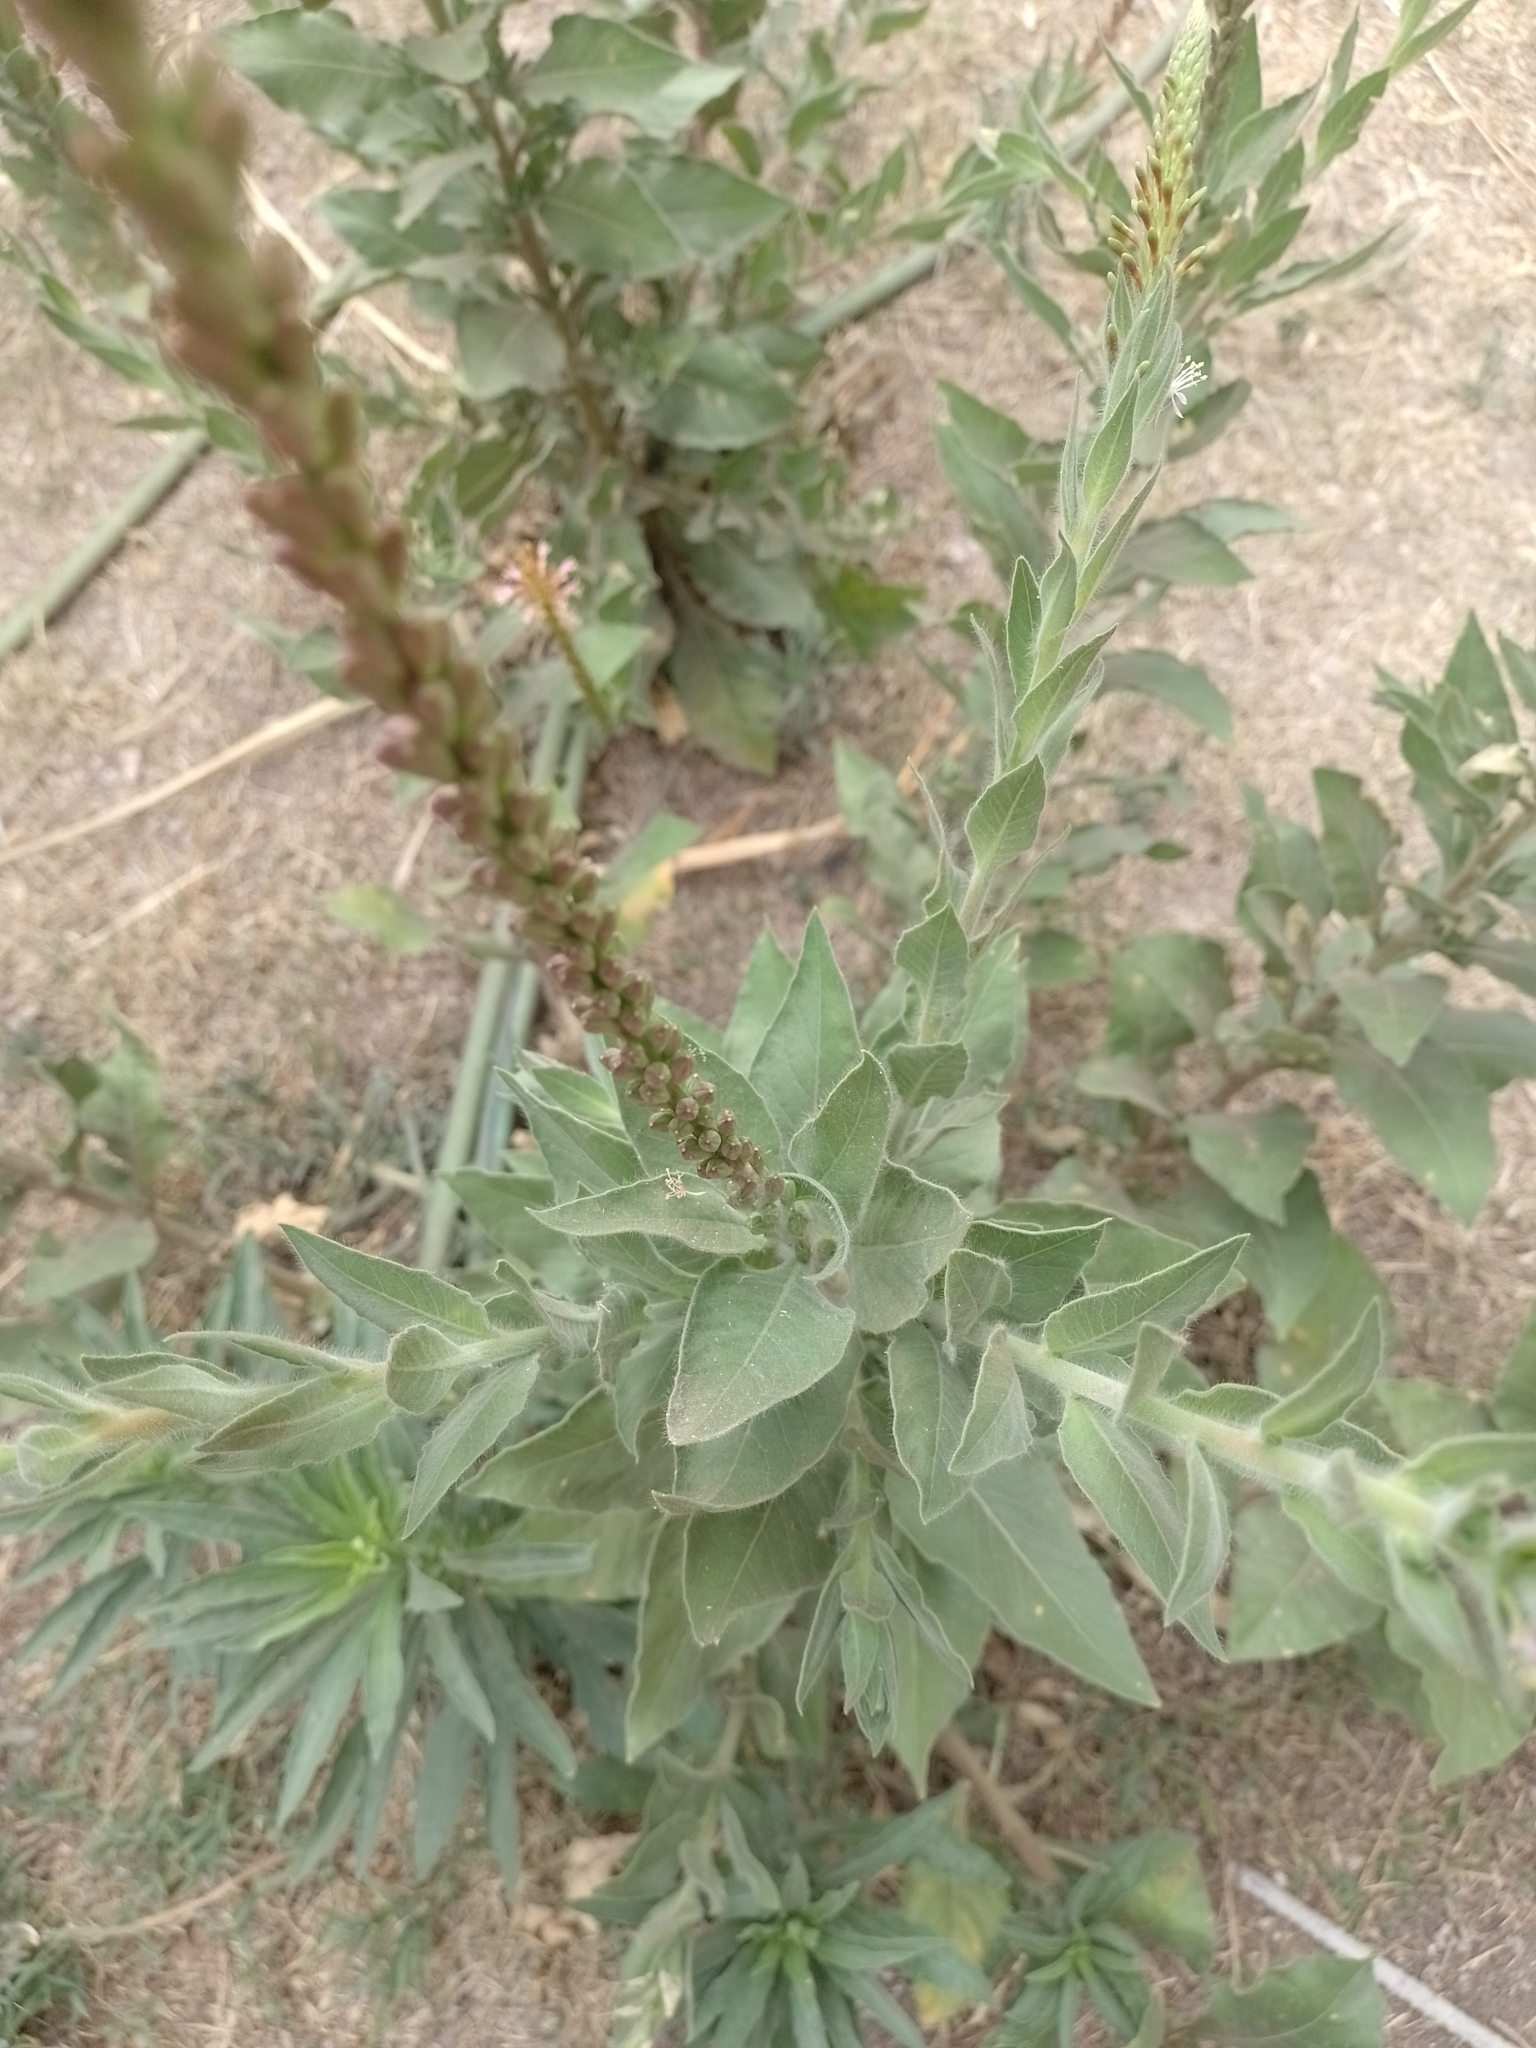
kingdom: Plantae
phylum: Tracheophyta
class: Magnoliopsida
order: Myrtales
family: Onagraceae
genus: Oenothera
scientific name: Oenothera curtiflora
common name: Velvetweed
